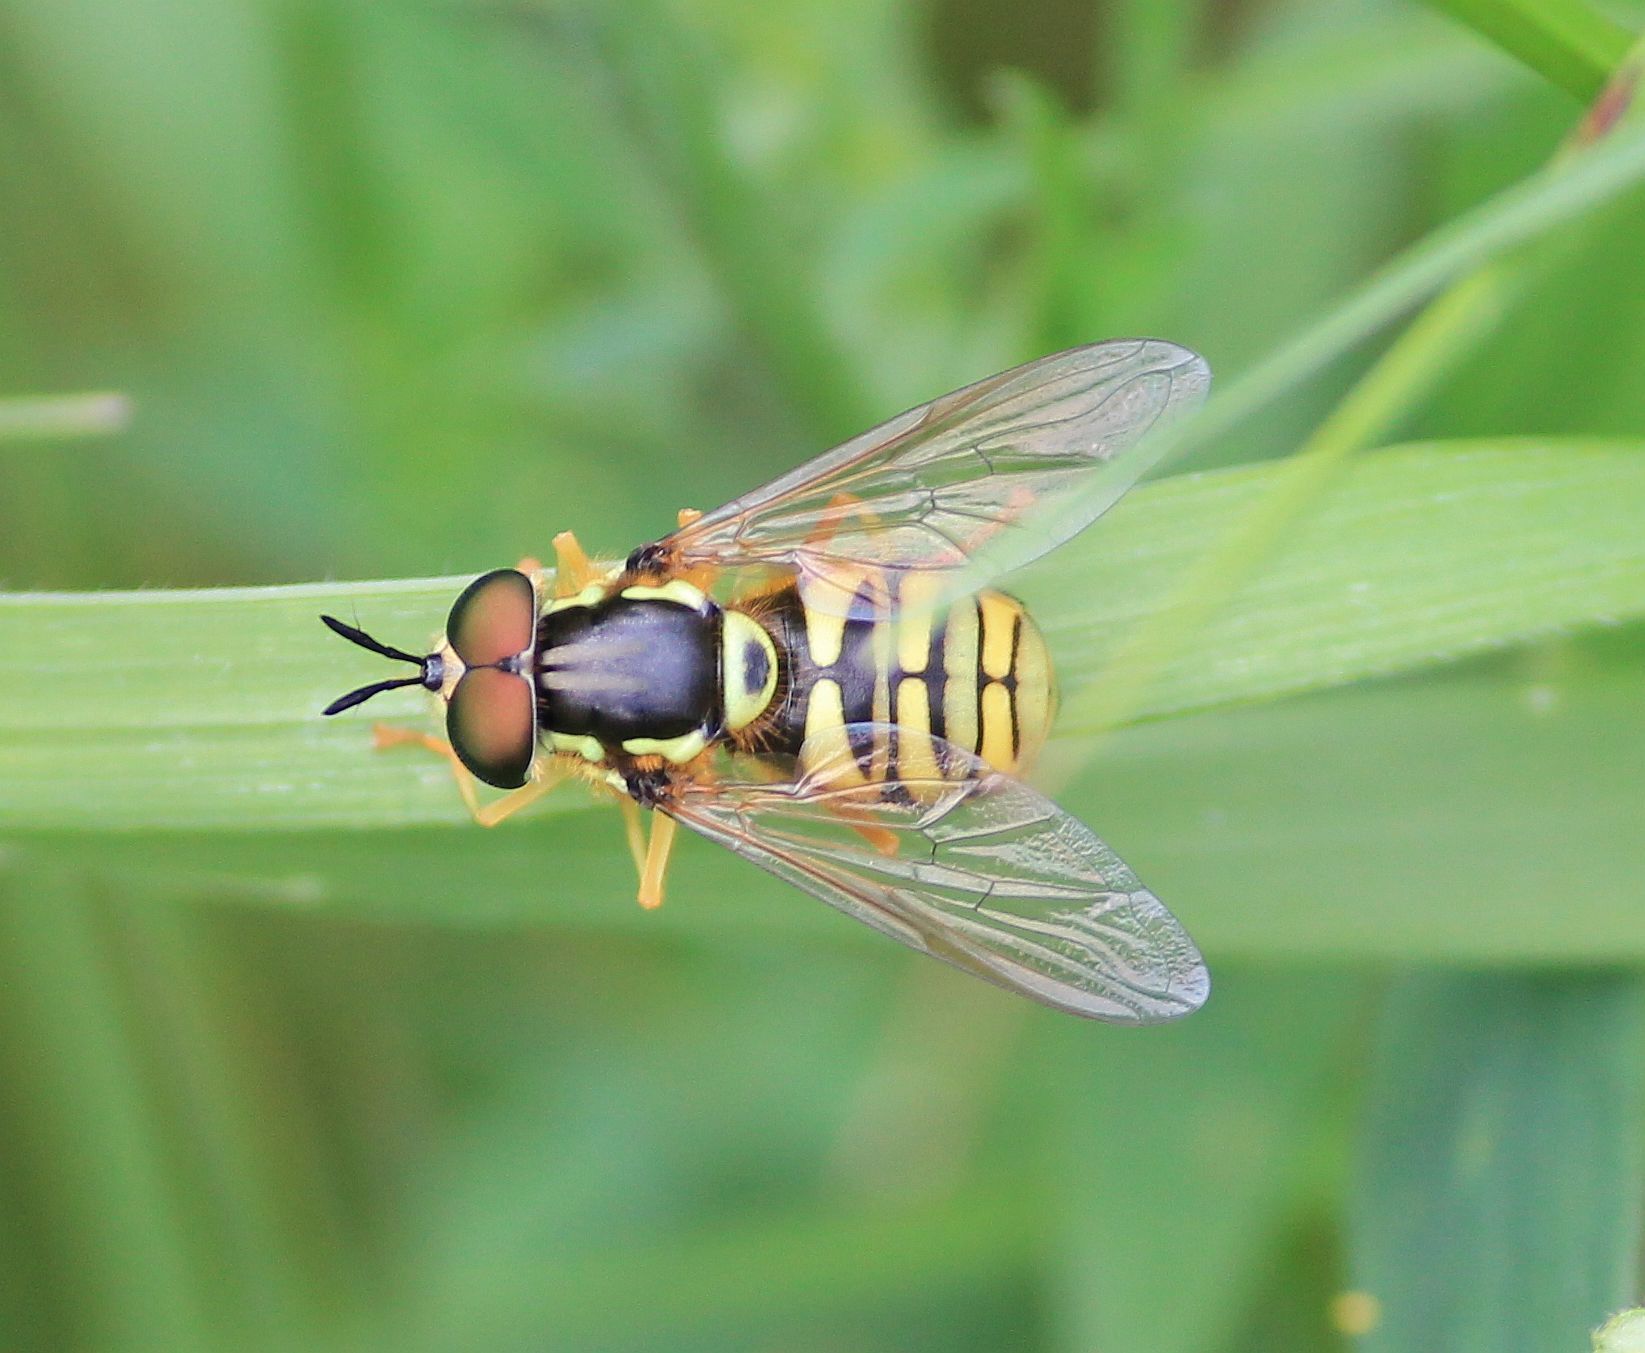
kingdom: Animalia
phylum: Arthropoda
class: Insecta
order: Diptera
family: Syrphidae
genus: Chrysotoxum
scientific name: Chrysotoxum verralli
